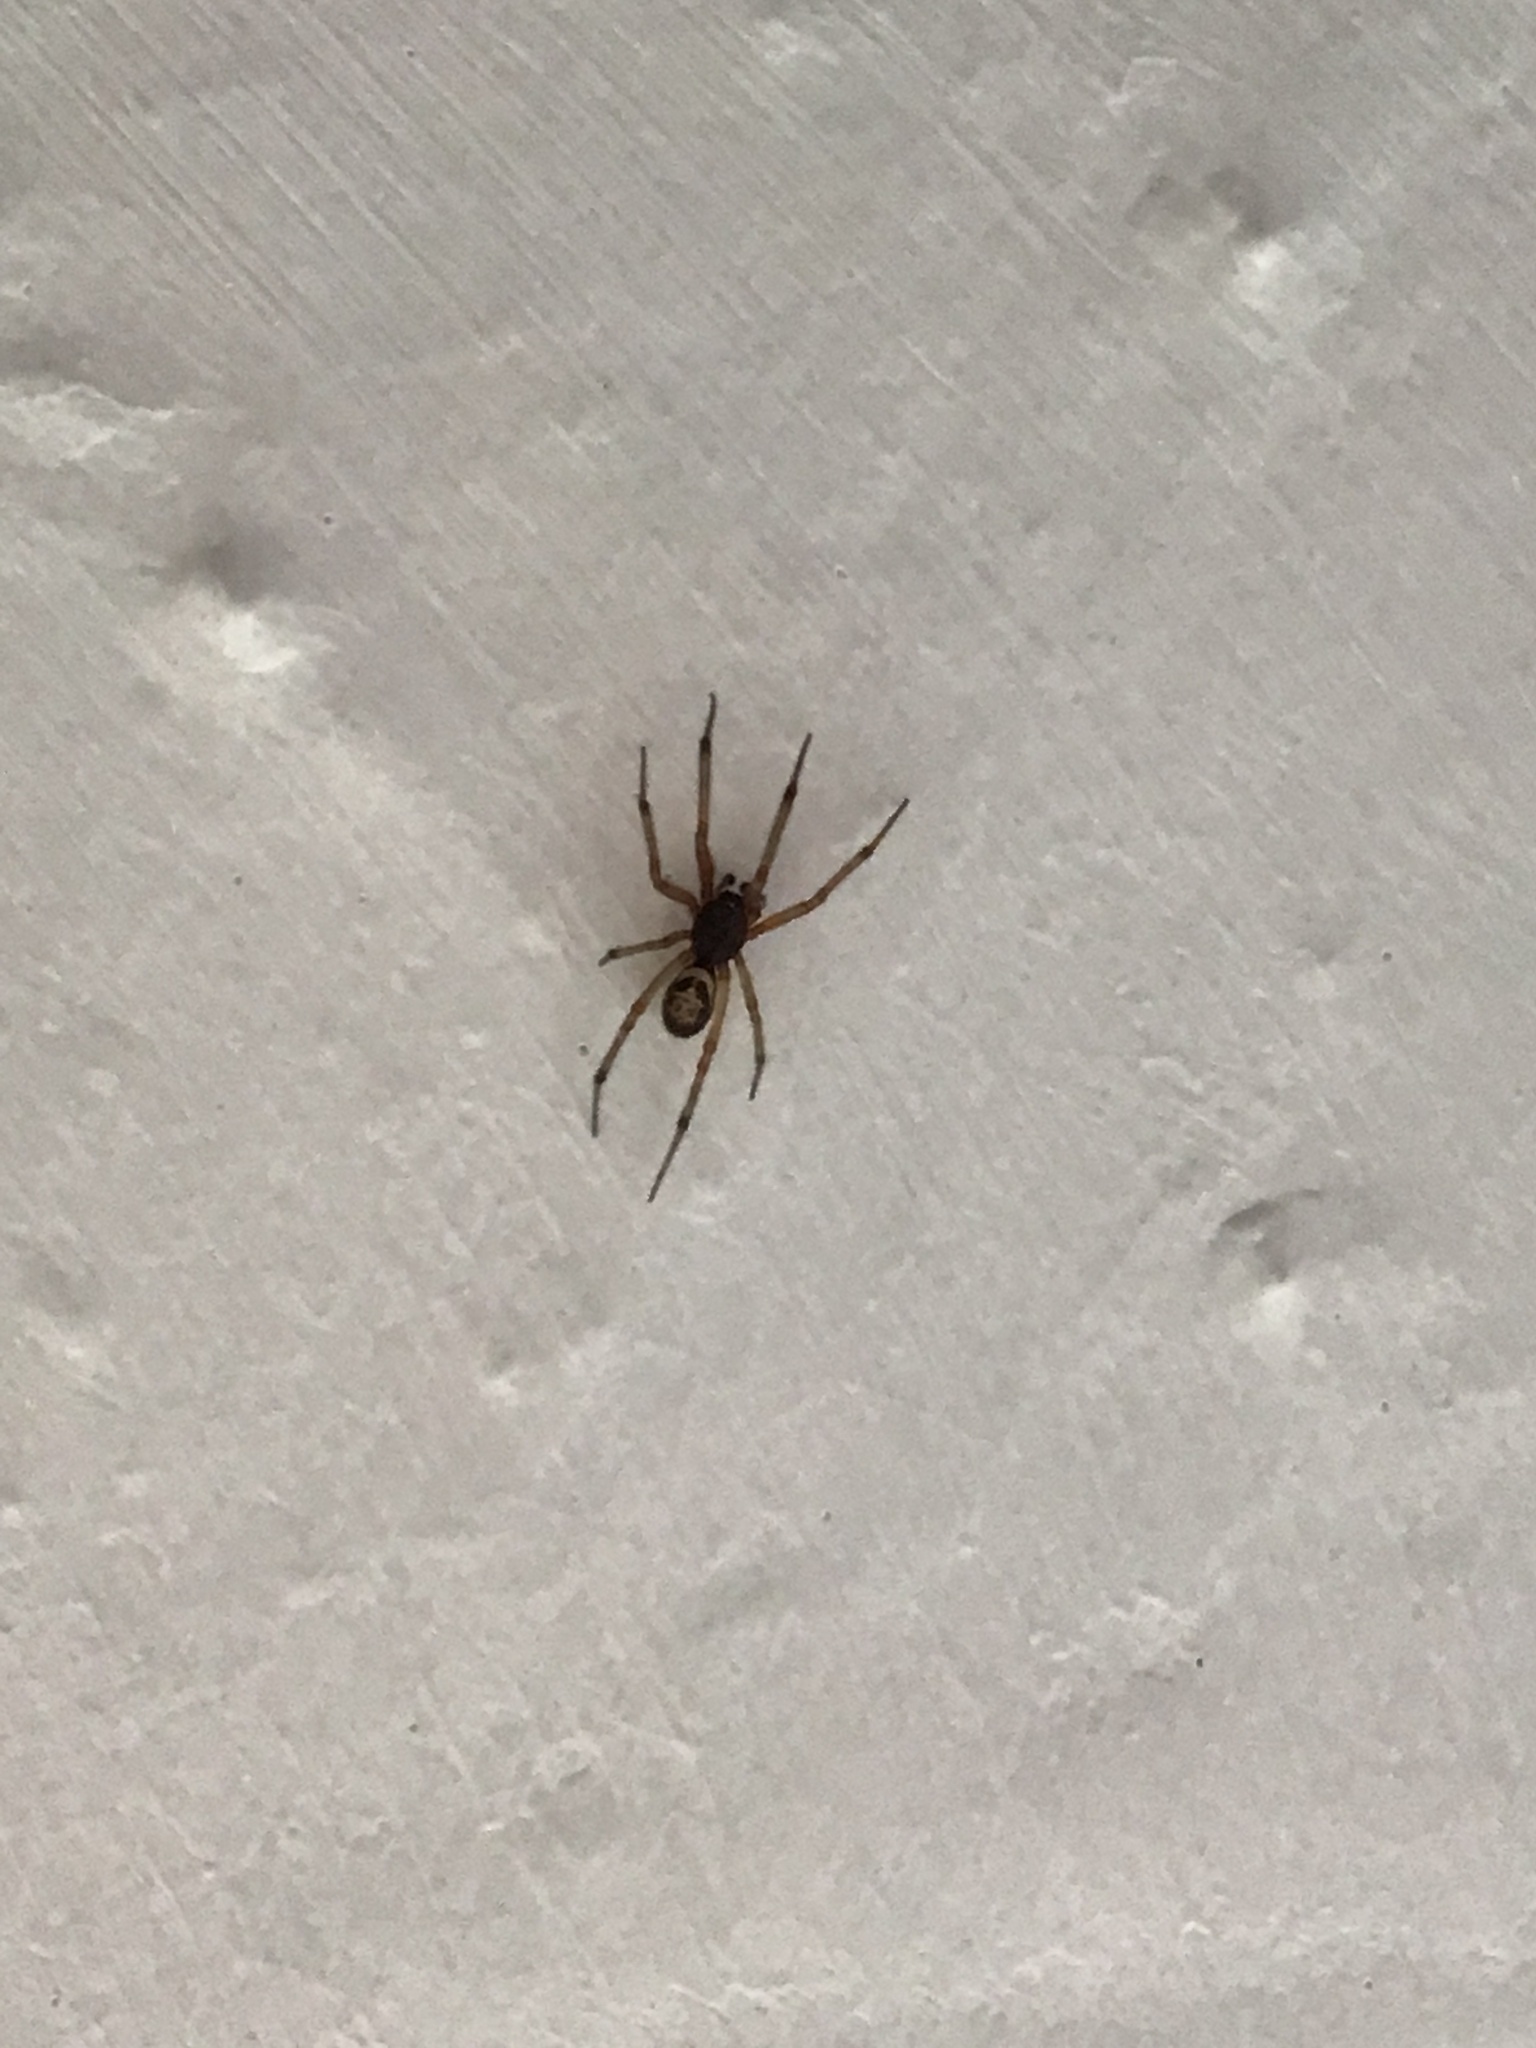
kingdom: Animalia
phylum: Arthropoda
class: Arachnida
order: Araneae
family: Theridiidae
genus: Steatoda
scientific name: Steatoda nobilis
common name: Cobweb weaver
